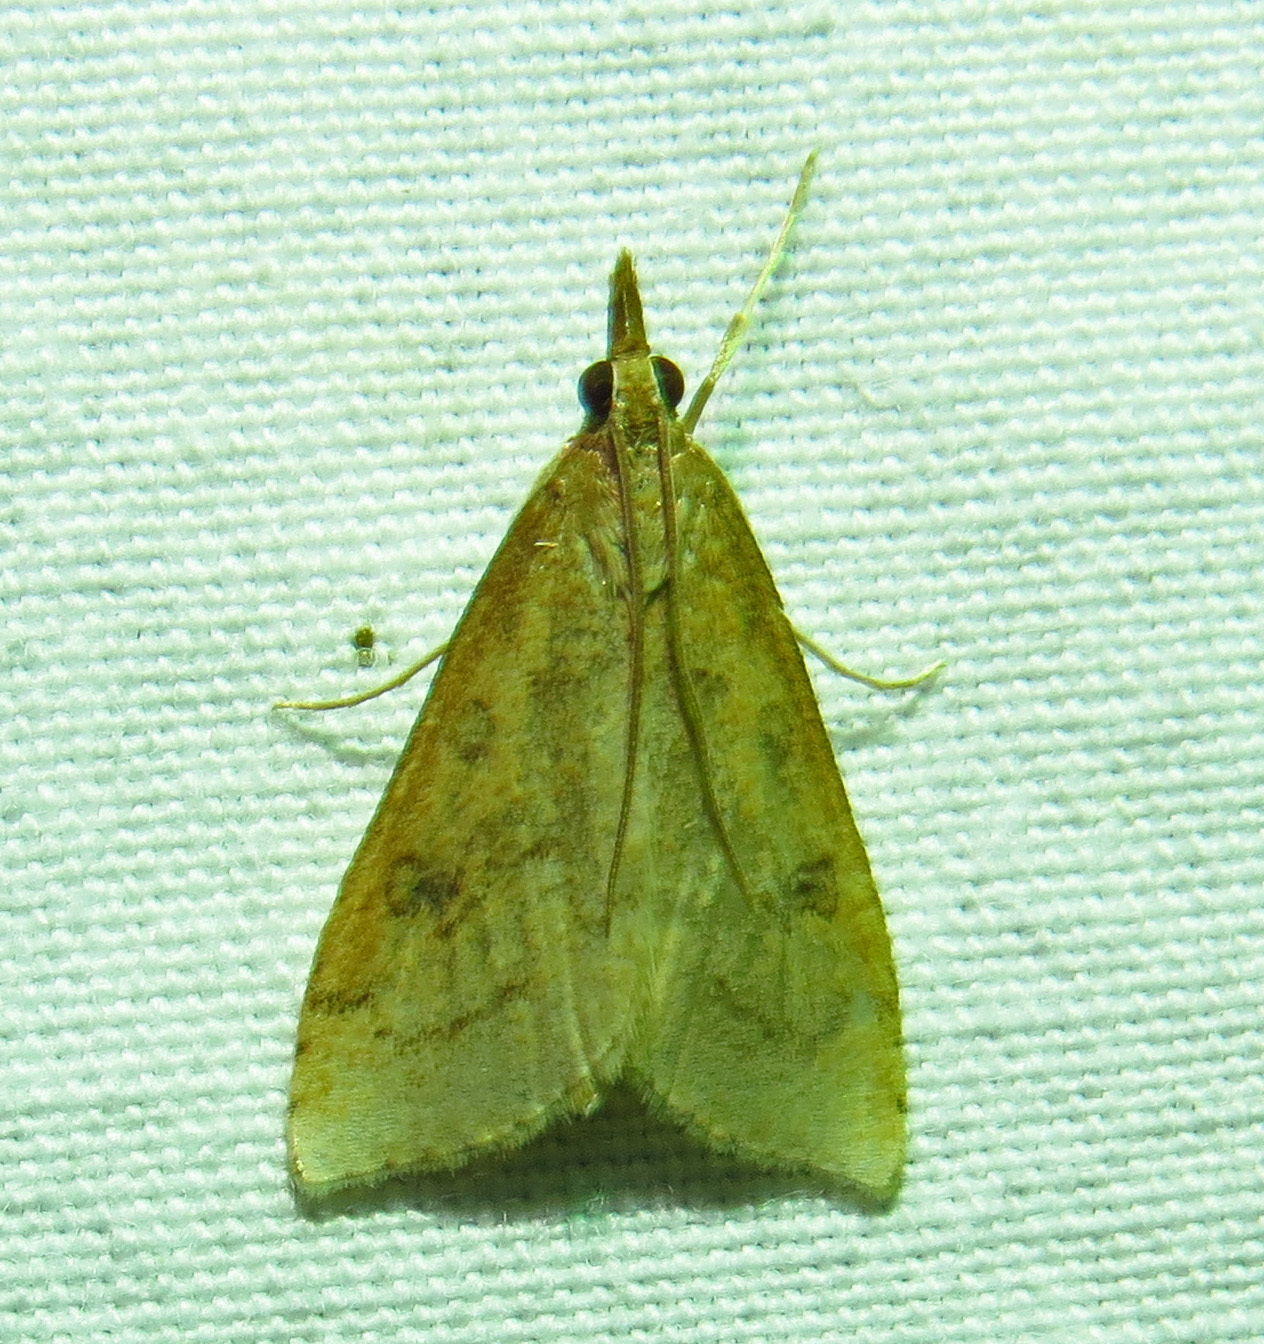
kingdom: Animalia
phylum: Arthropoda
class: Insecta
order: Lepidoptera
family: Crambidae
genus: Udea
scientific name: Udea rubigalis
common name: Celery leaftier moth
